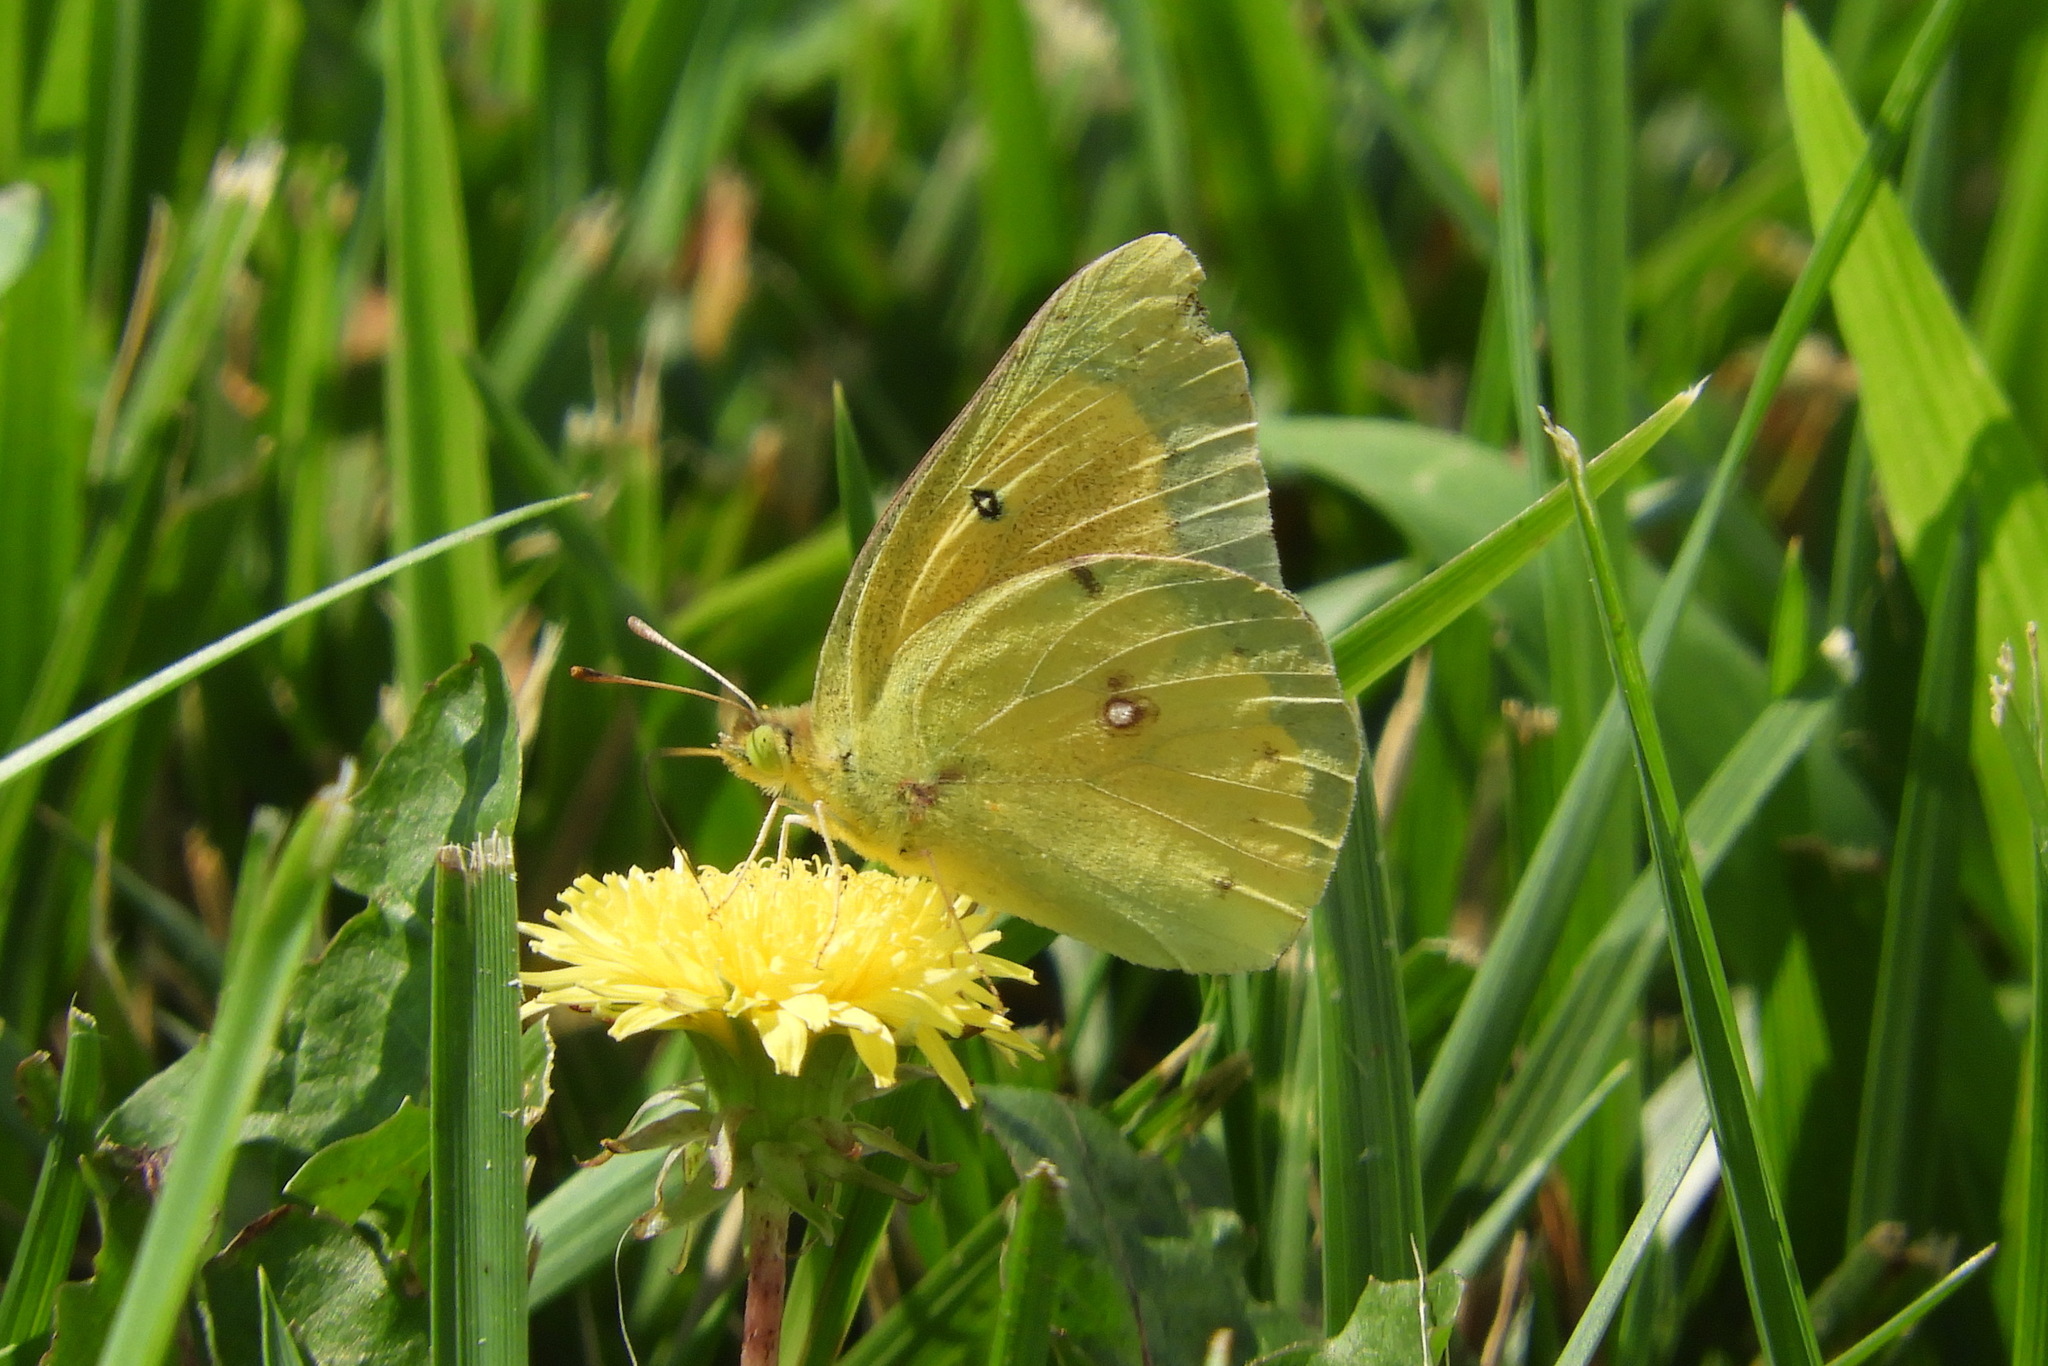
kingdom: Animalia
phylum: Arthropoda
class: Insecta
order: Lepidoptera
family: Pieridae
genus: Colias
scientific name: Colias eurytheme
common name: Alfalfa butterfly
